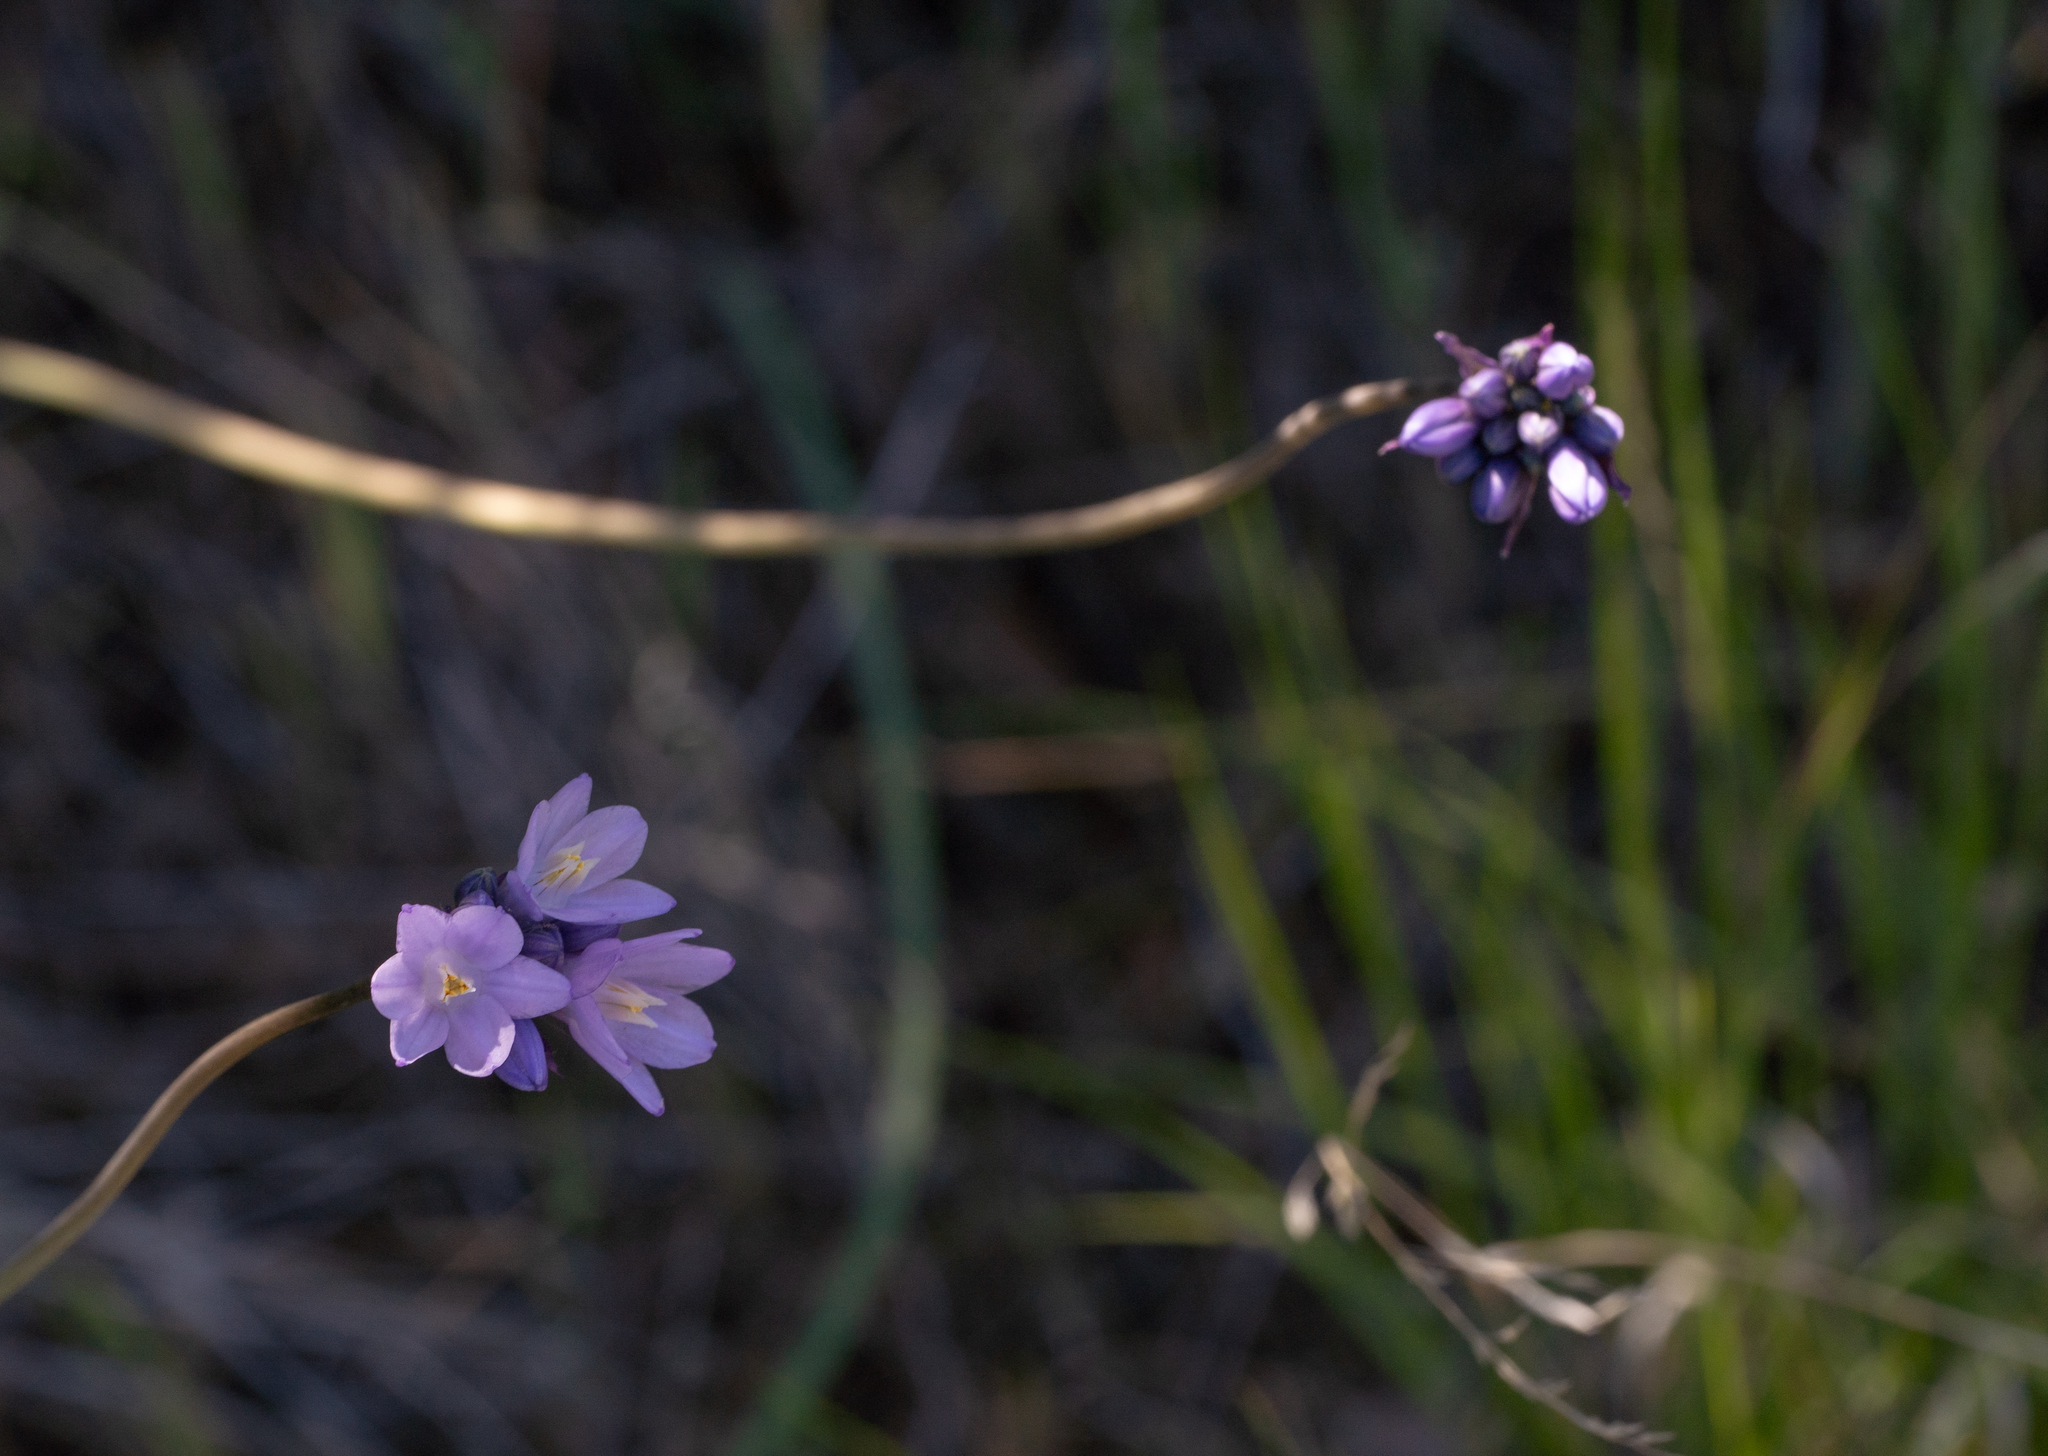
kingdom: Plantae
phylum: Tracheophyta
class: Liliopsida
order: Asparagales
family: Asparagaceae
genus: Dipterostemon
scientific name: Dipterostemon capitatus
